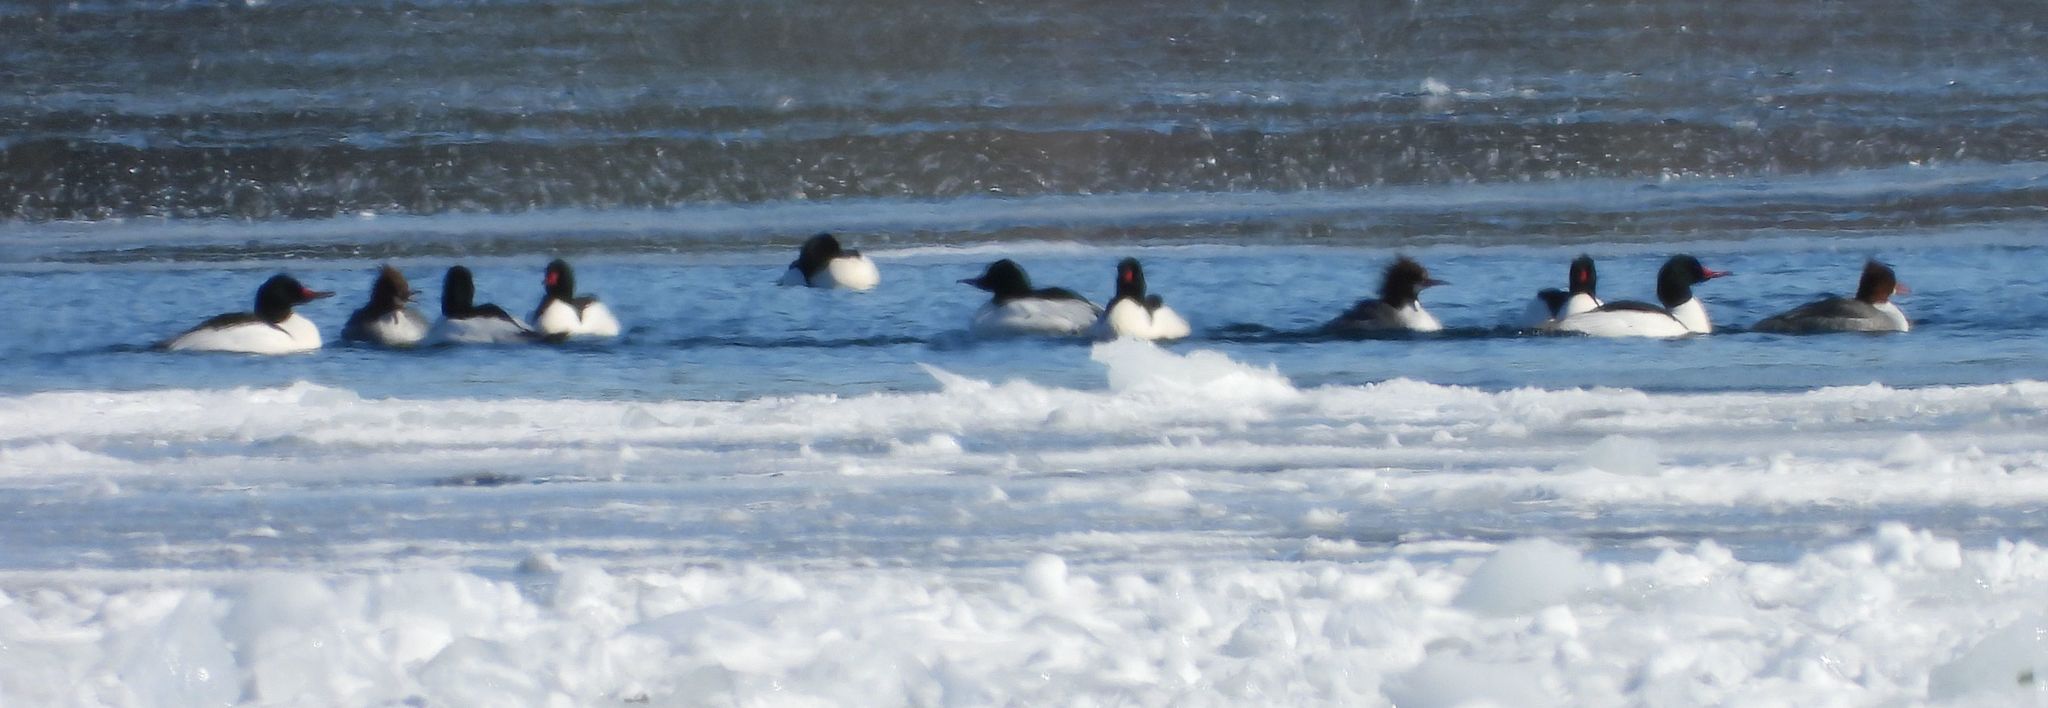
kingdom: Animalia
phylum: Chordata
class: Aves
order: Anseriformes
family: Anatidae
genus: Mergus
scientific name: Mergus merganser
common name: Common merganser
